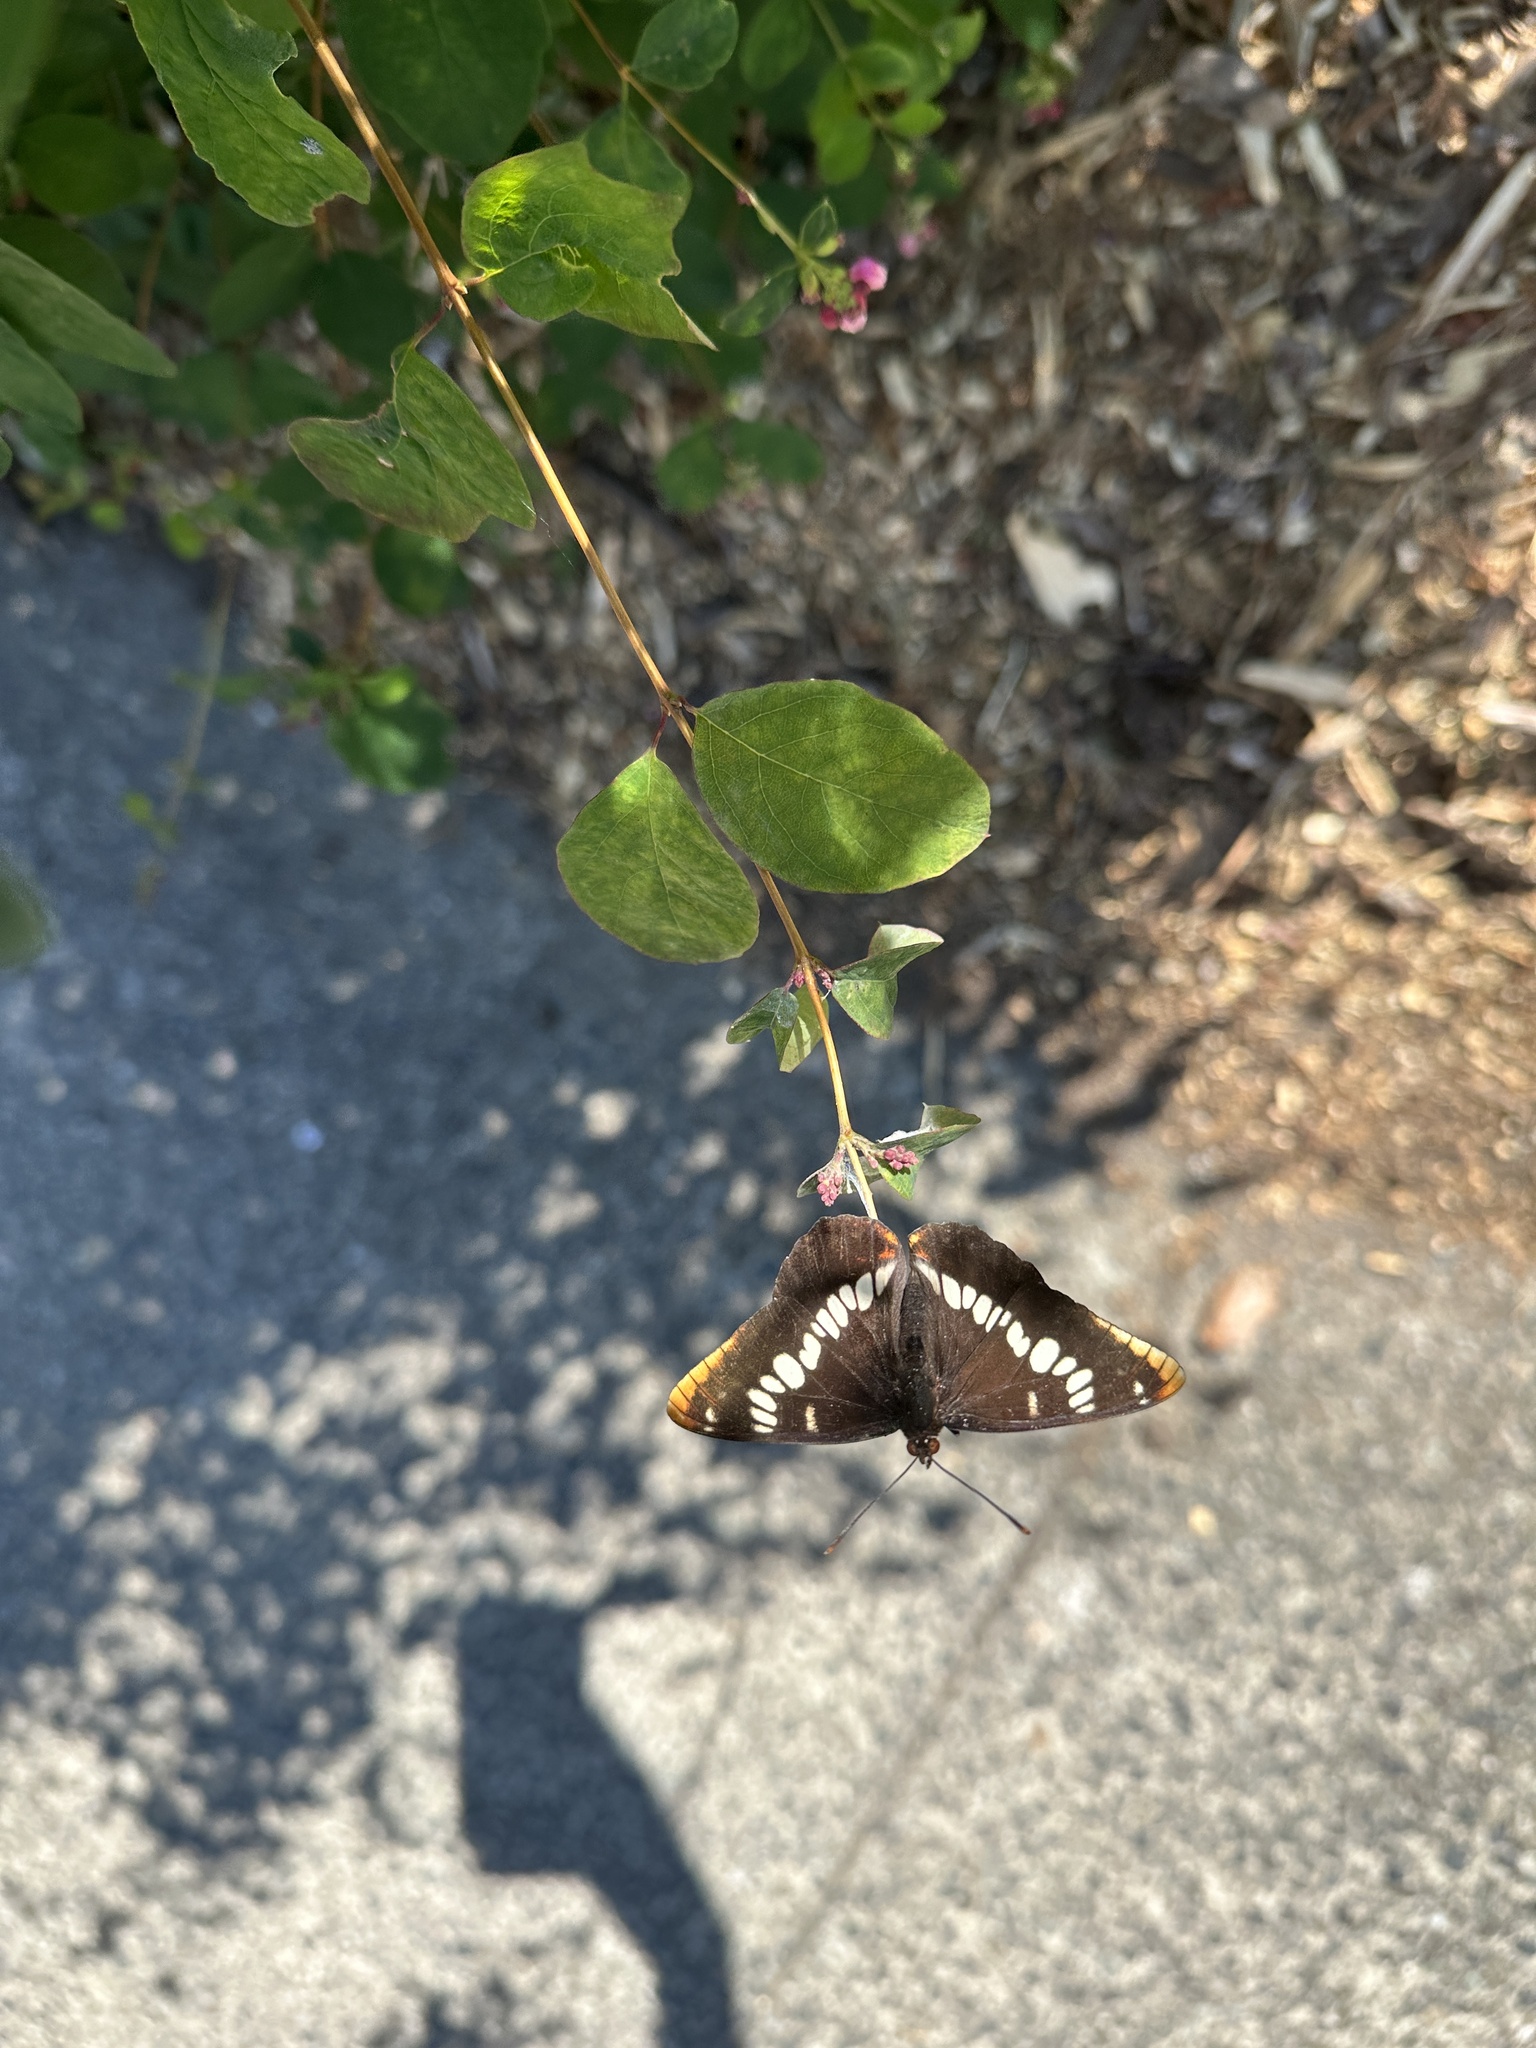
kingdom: Animalia
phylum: Arthropoda
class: Insecta
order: Lepidoptera
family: Nymphalidae
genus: Limenitis
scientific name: Limenitis lorquini
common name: Lorquin's admiral
